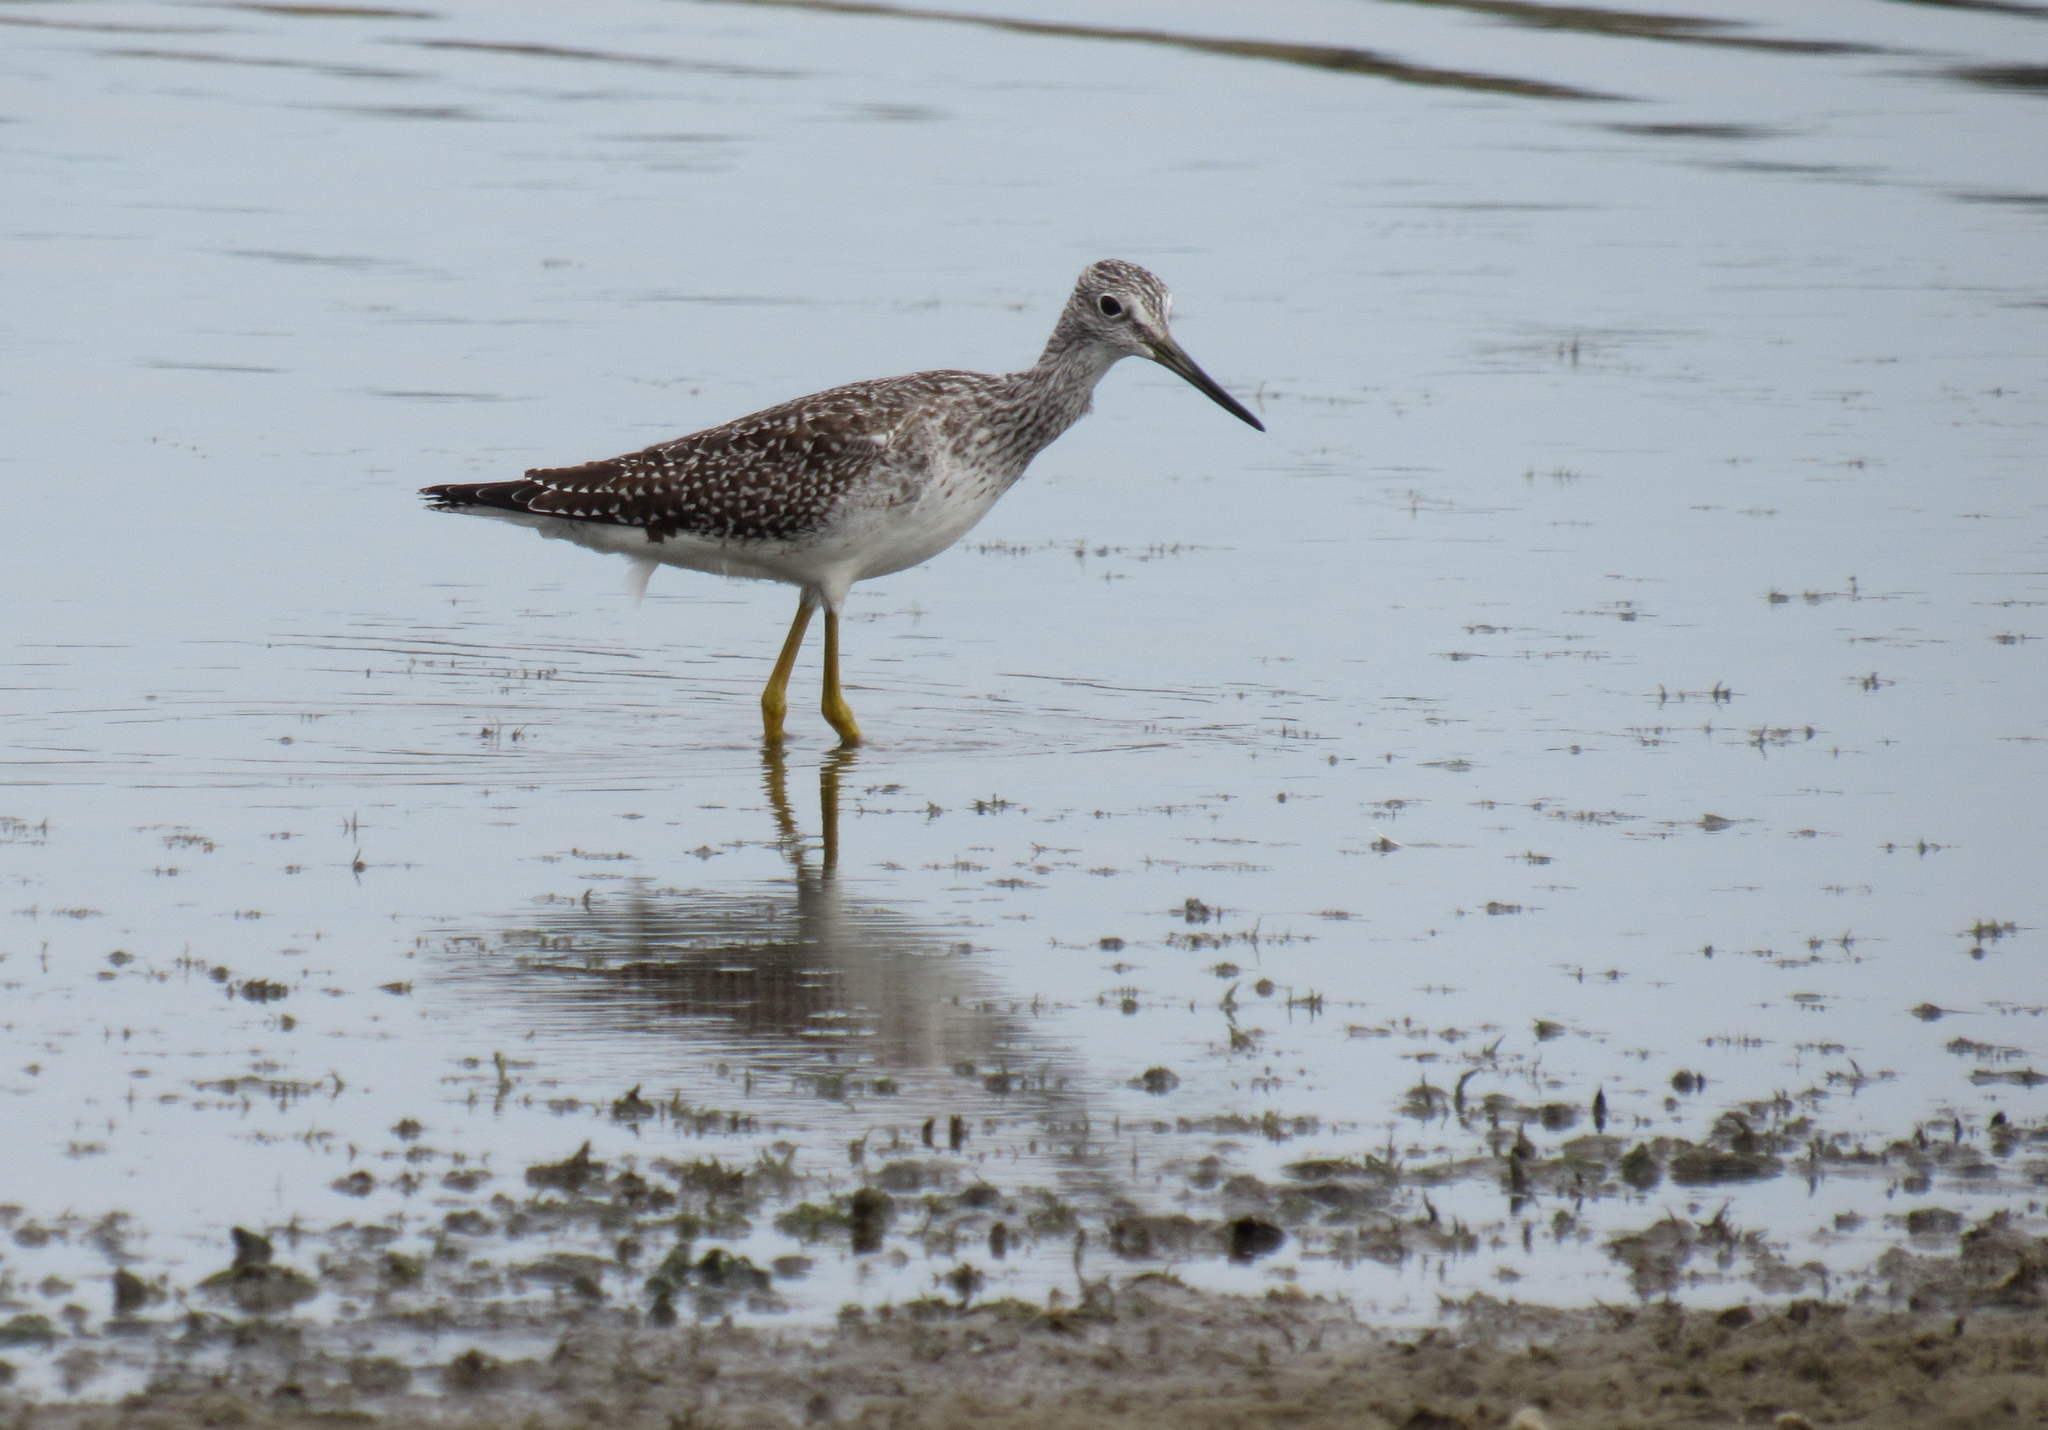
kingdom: Animalia
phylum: Chordata
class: Aves
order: Charadriiformes
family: Scolopacidae
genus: Tringa
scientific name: Tringa melanoleuca
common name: Greater yellowlegs
